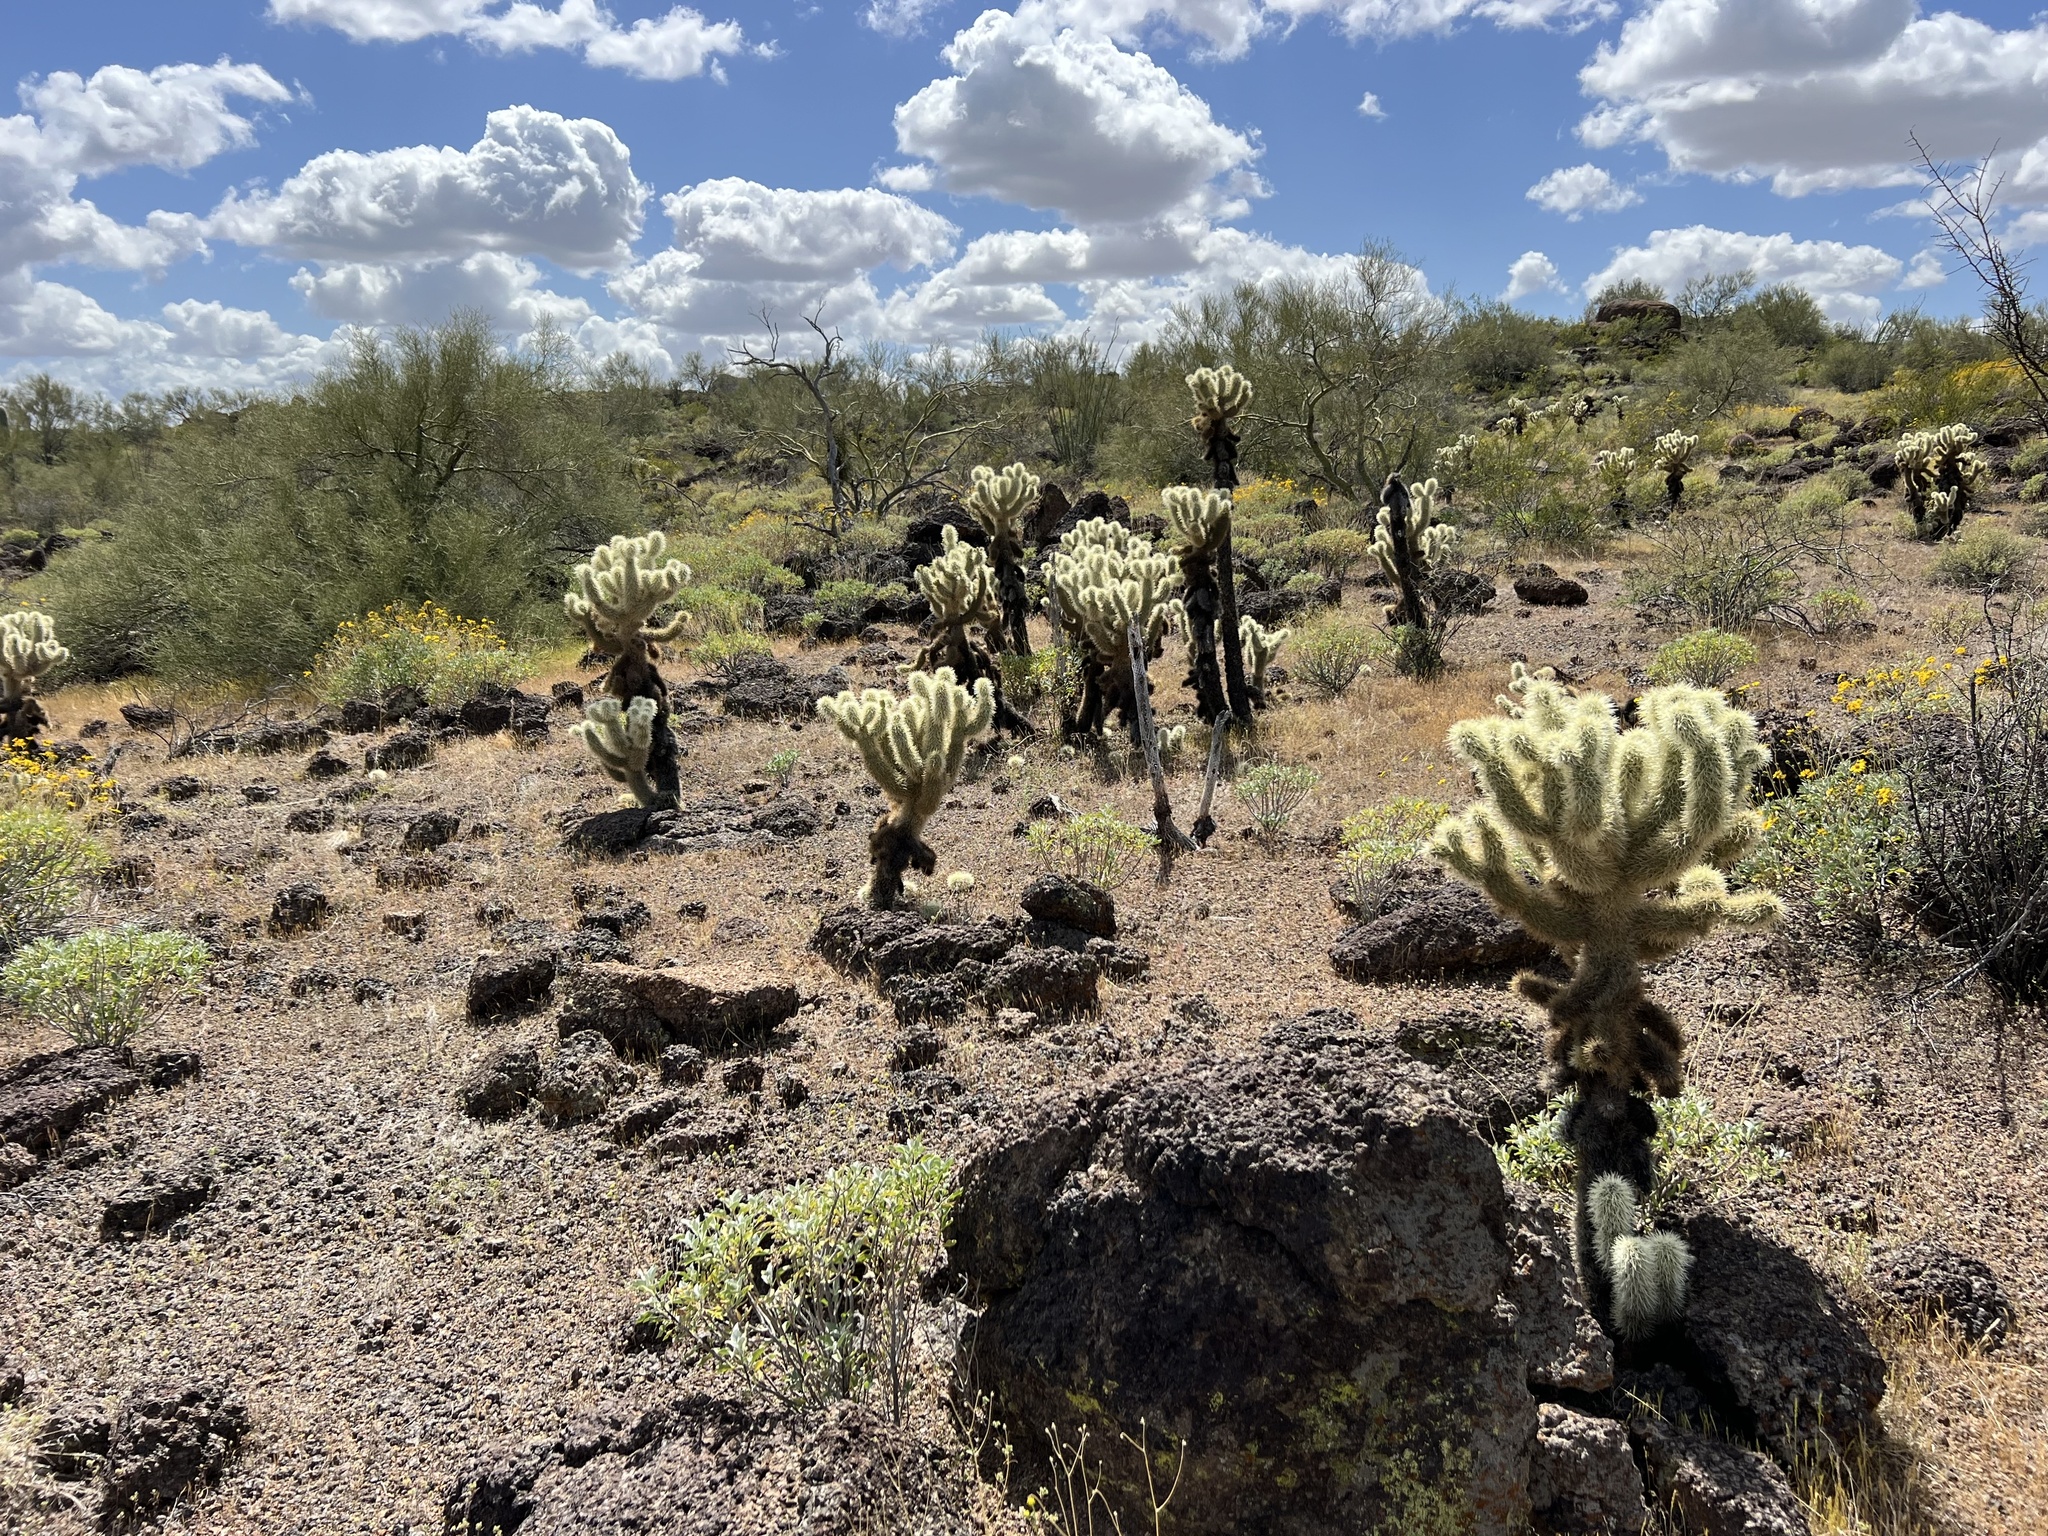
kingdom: Plantae
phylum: Tracheophyta
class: Magnoliopsida
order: Caryophyllales
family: Cactaceae
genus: Cylindropuntia
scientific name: Cylindropuntia fosbergii
